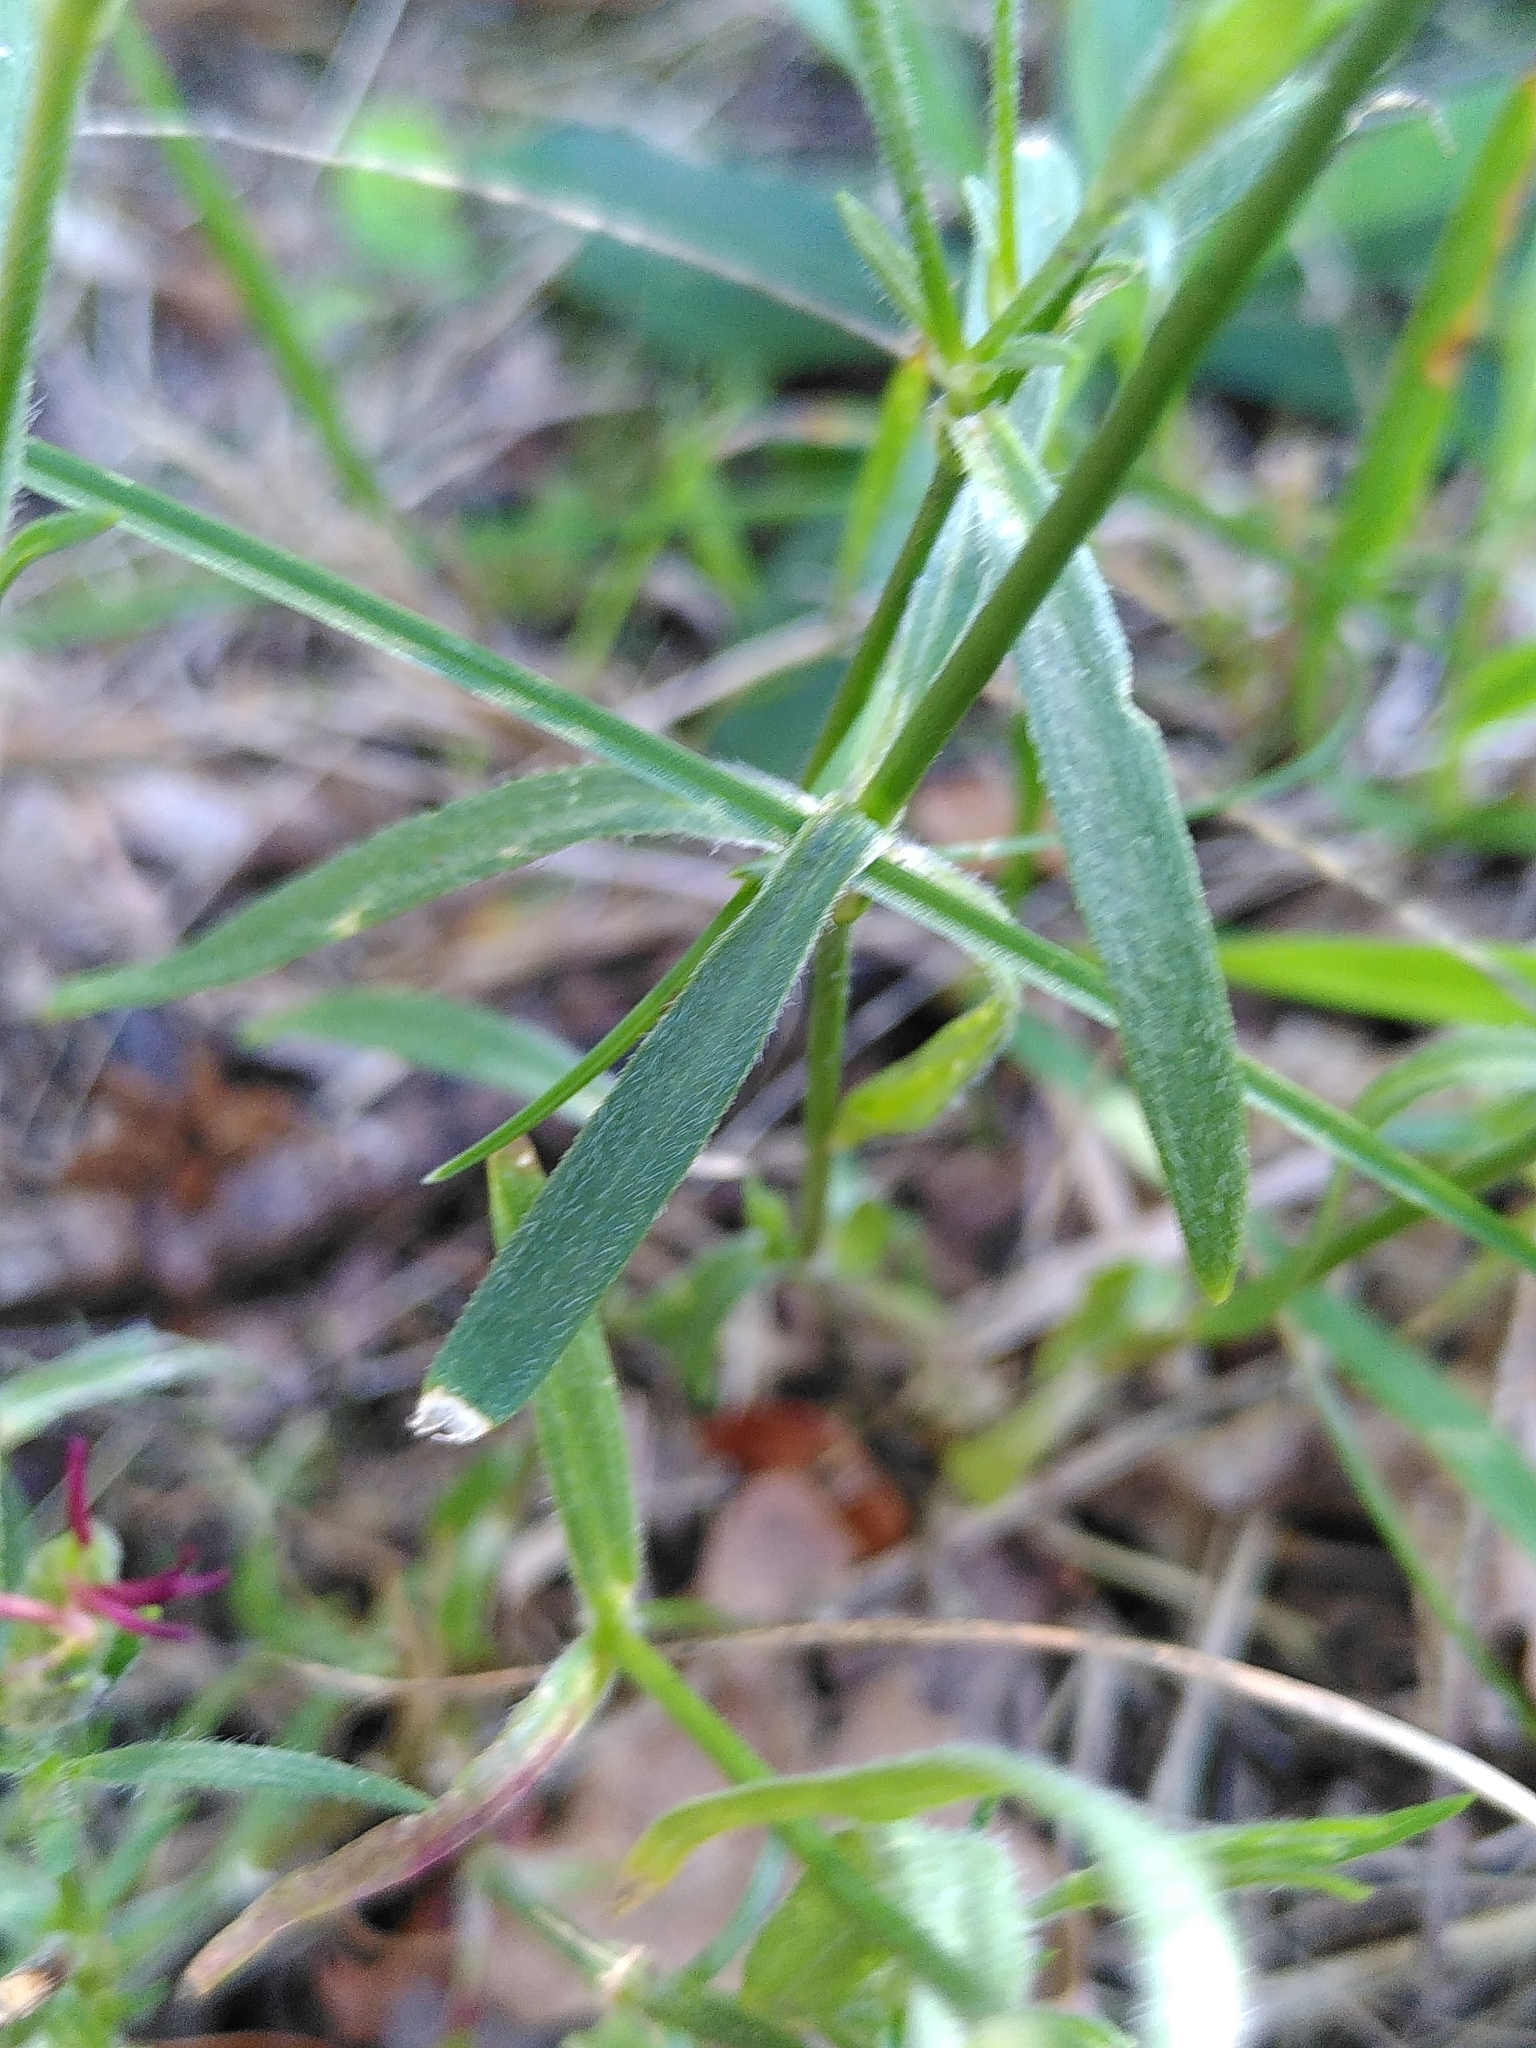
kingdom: Plantae
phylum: Tracheophyta
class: Magnoliopsida
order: Caryophyllales
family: Caryophyllaceae
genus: Dianthus
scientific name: Dianthus armeria
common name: Deptford pink
